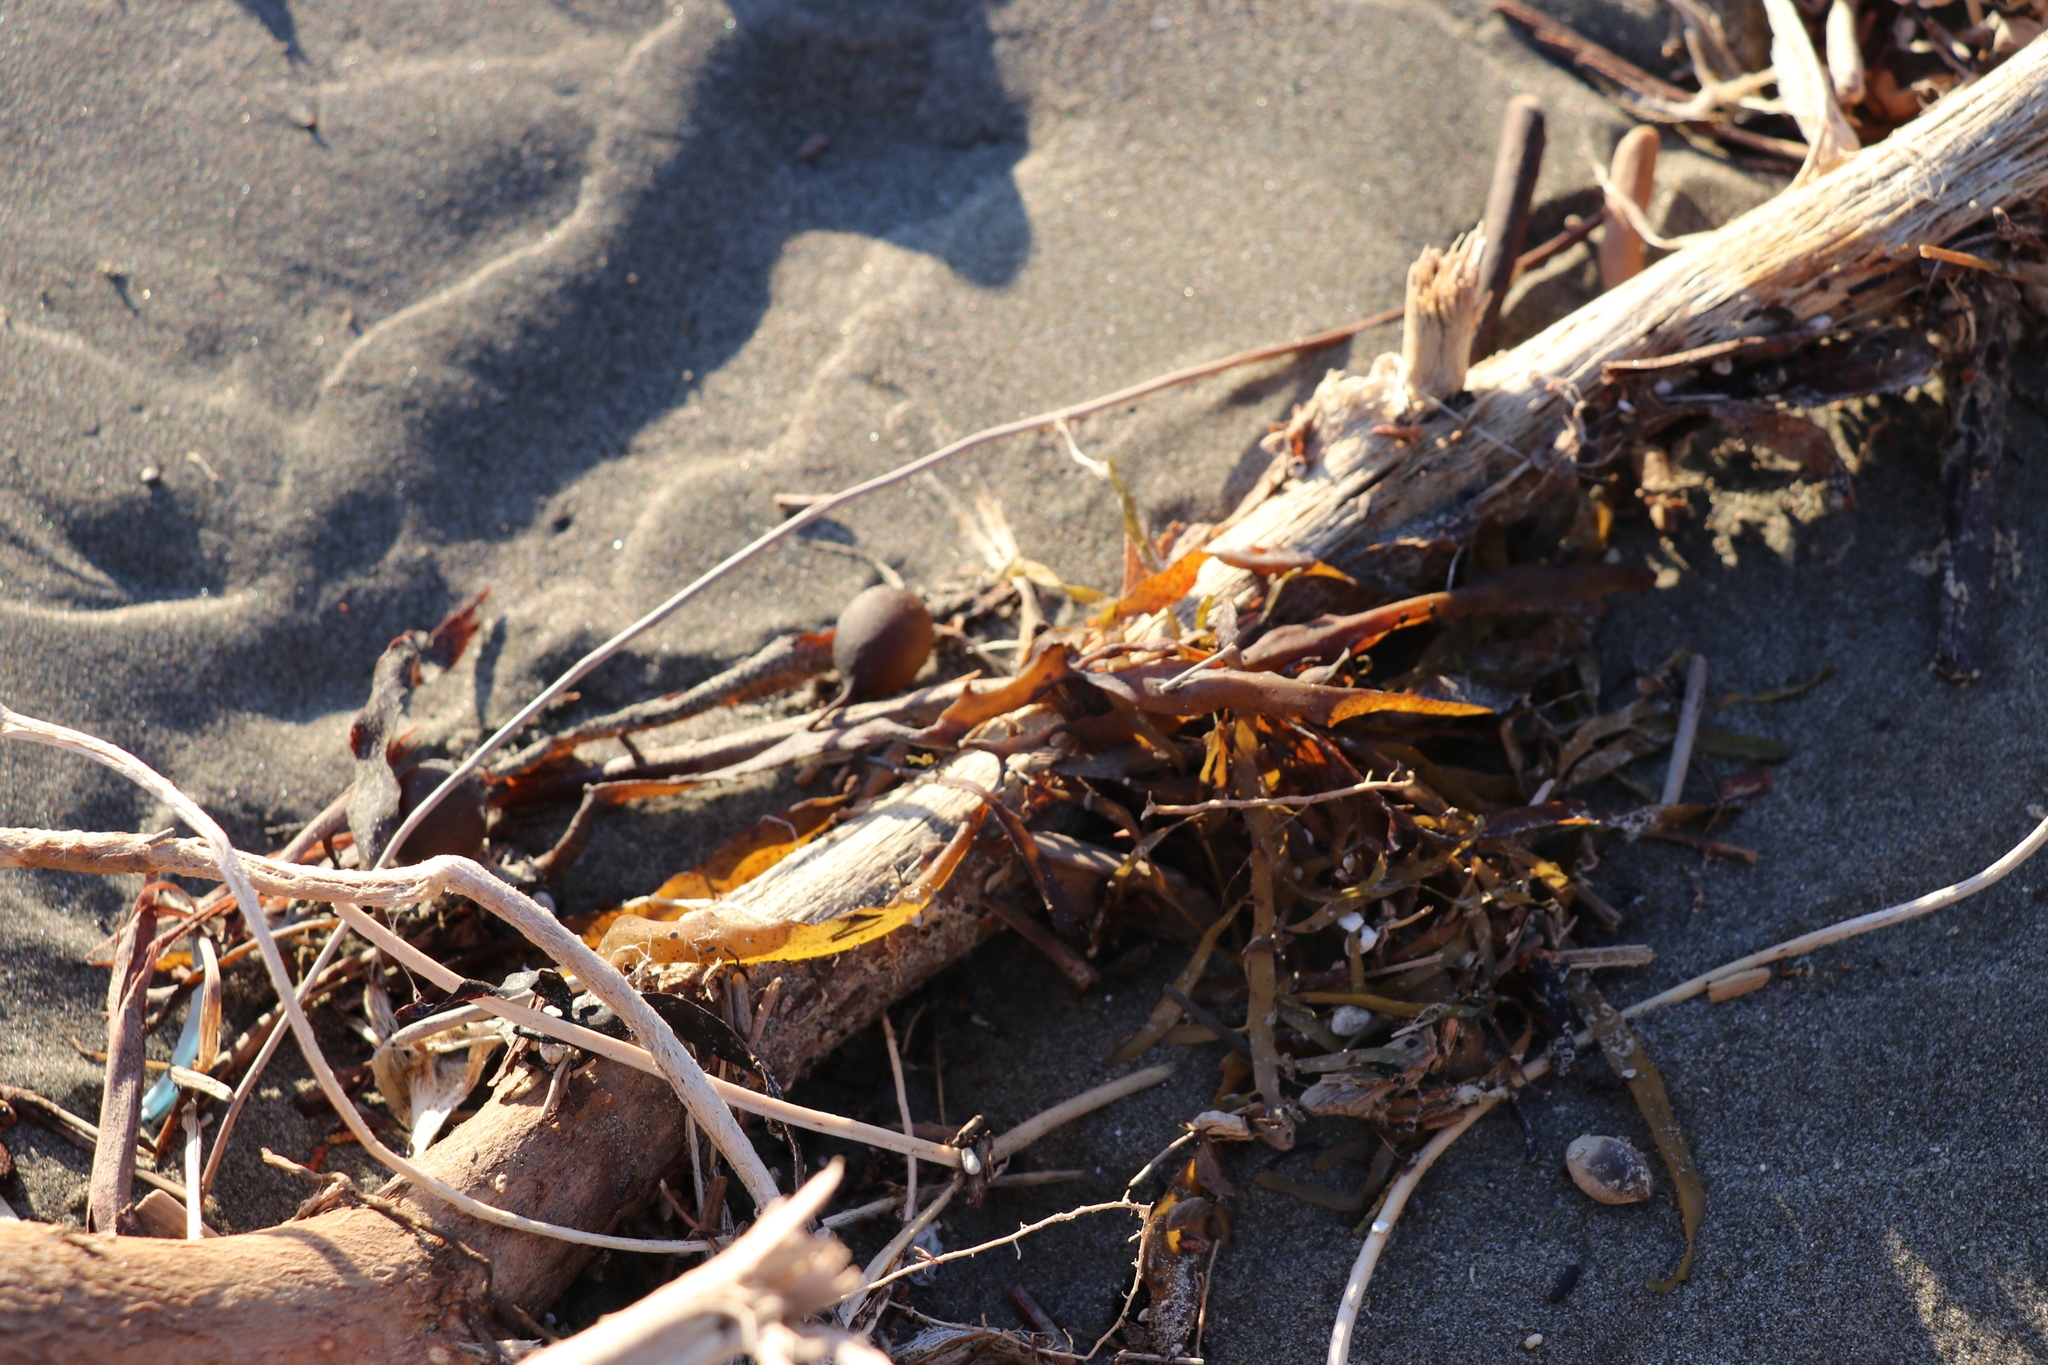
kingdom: Chromista
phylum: Ochrophyta
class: Phaeophyceae
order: Fucales
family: Sargassaceae
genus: Carpophyllum
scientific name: Carpophyllum flexuosum
